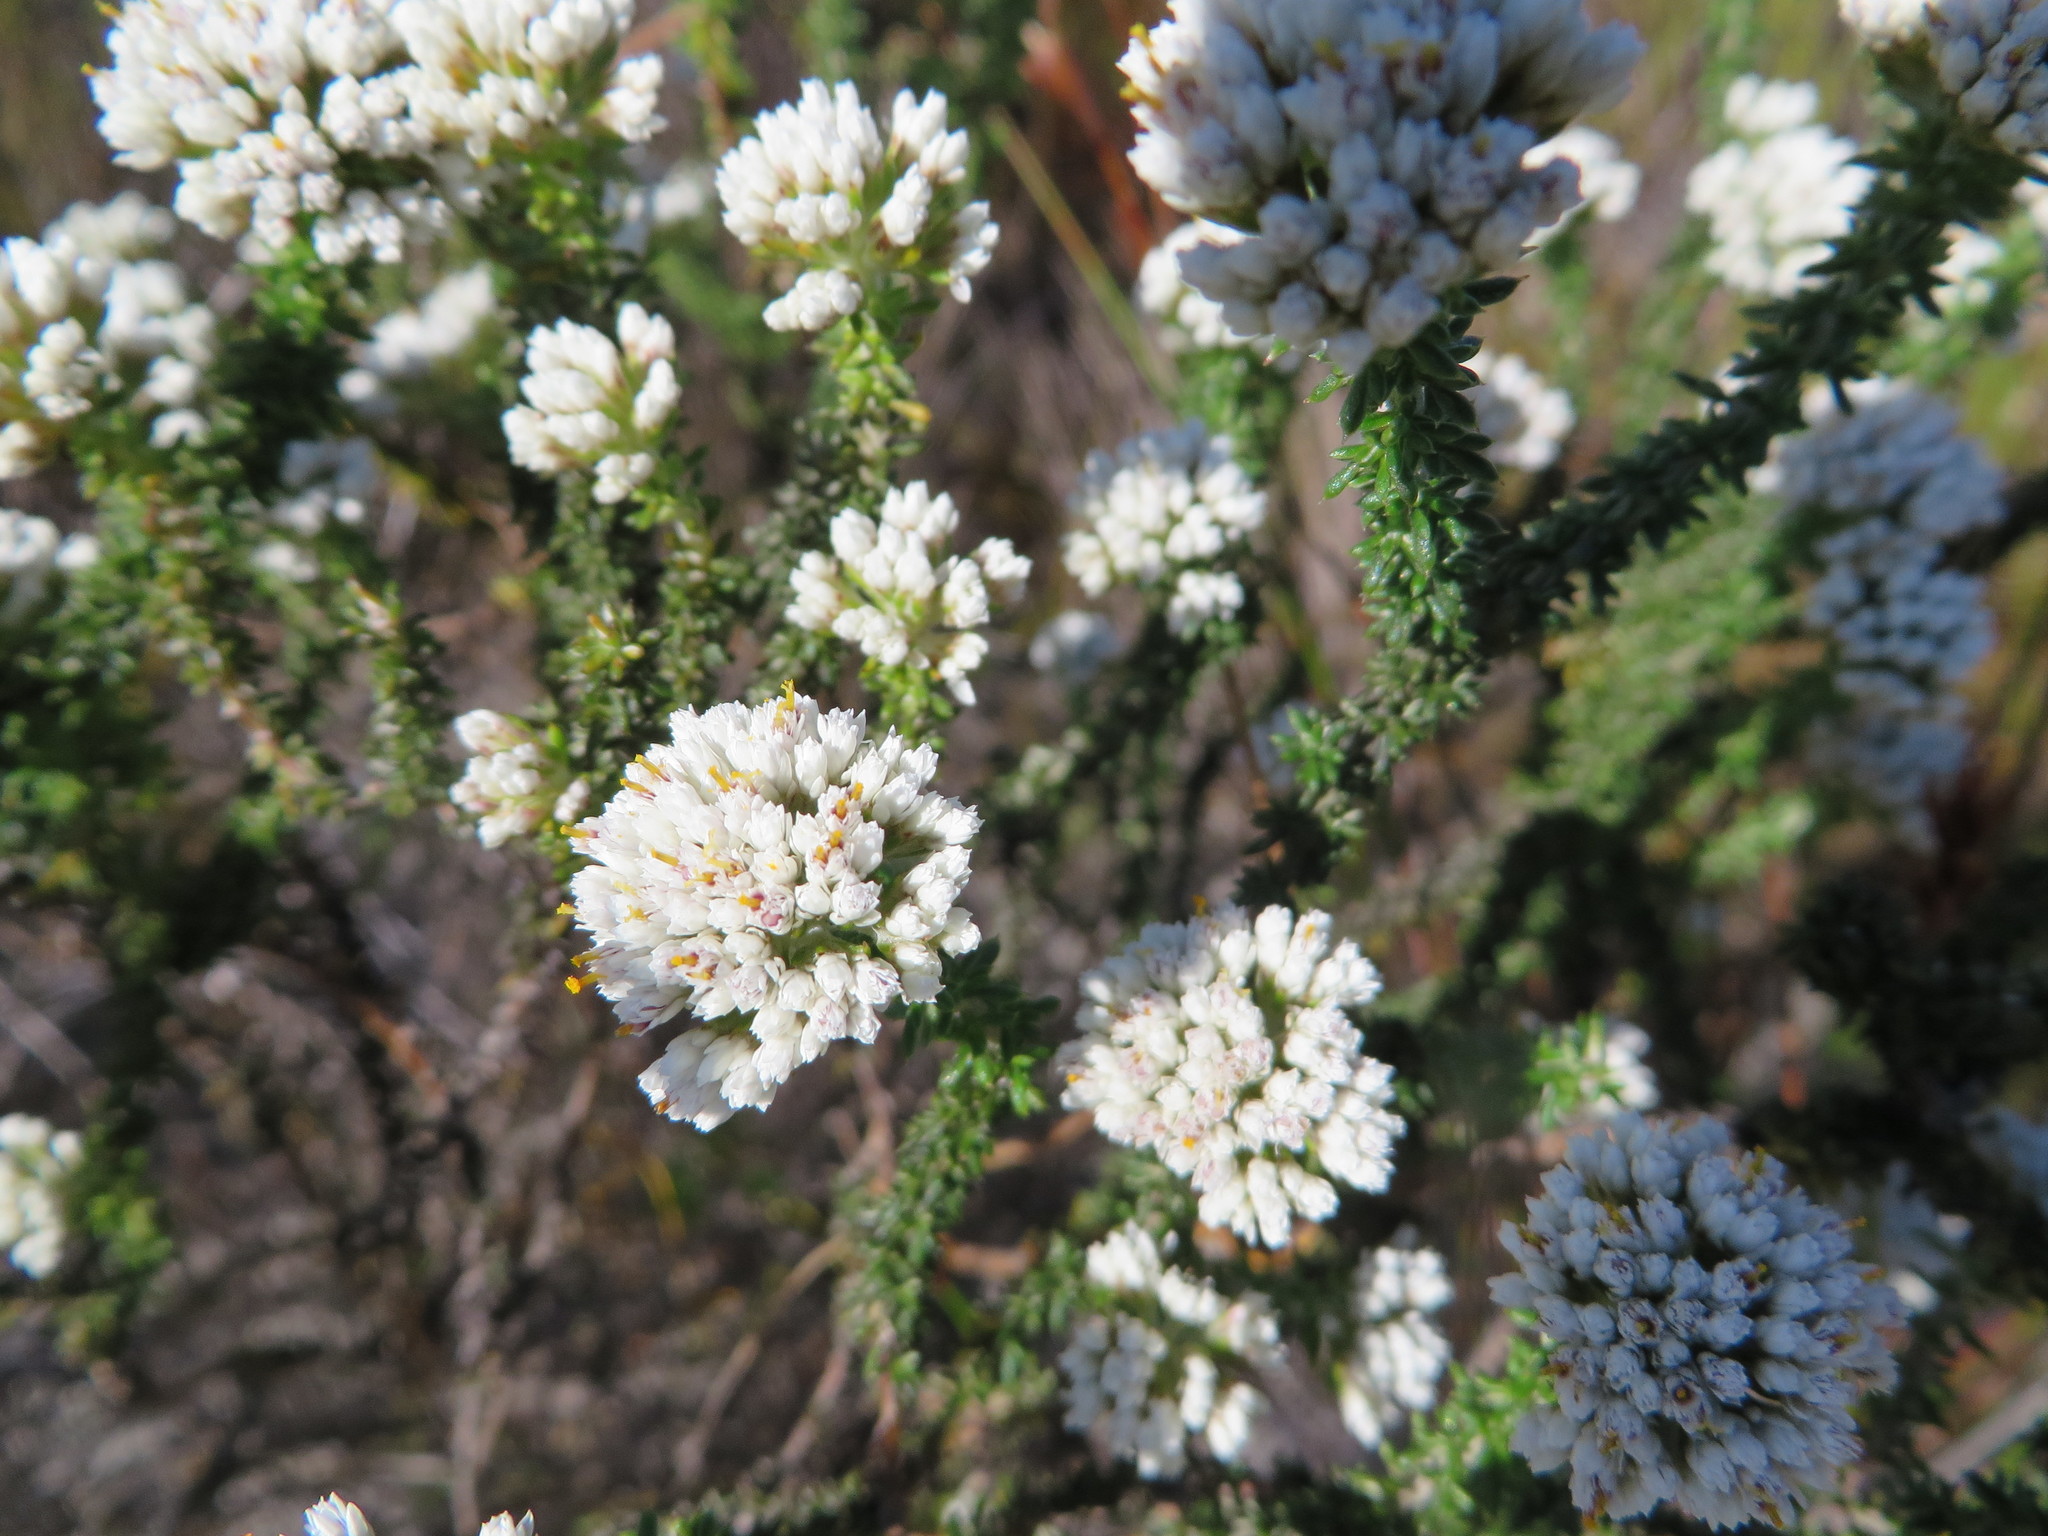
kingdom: Plantae
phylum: Tracheophyta
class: Magnoliopsida
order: Asterales
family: Asteraceae
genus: Metalasia
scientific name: Metalasia brevifolia
